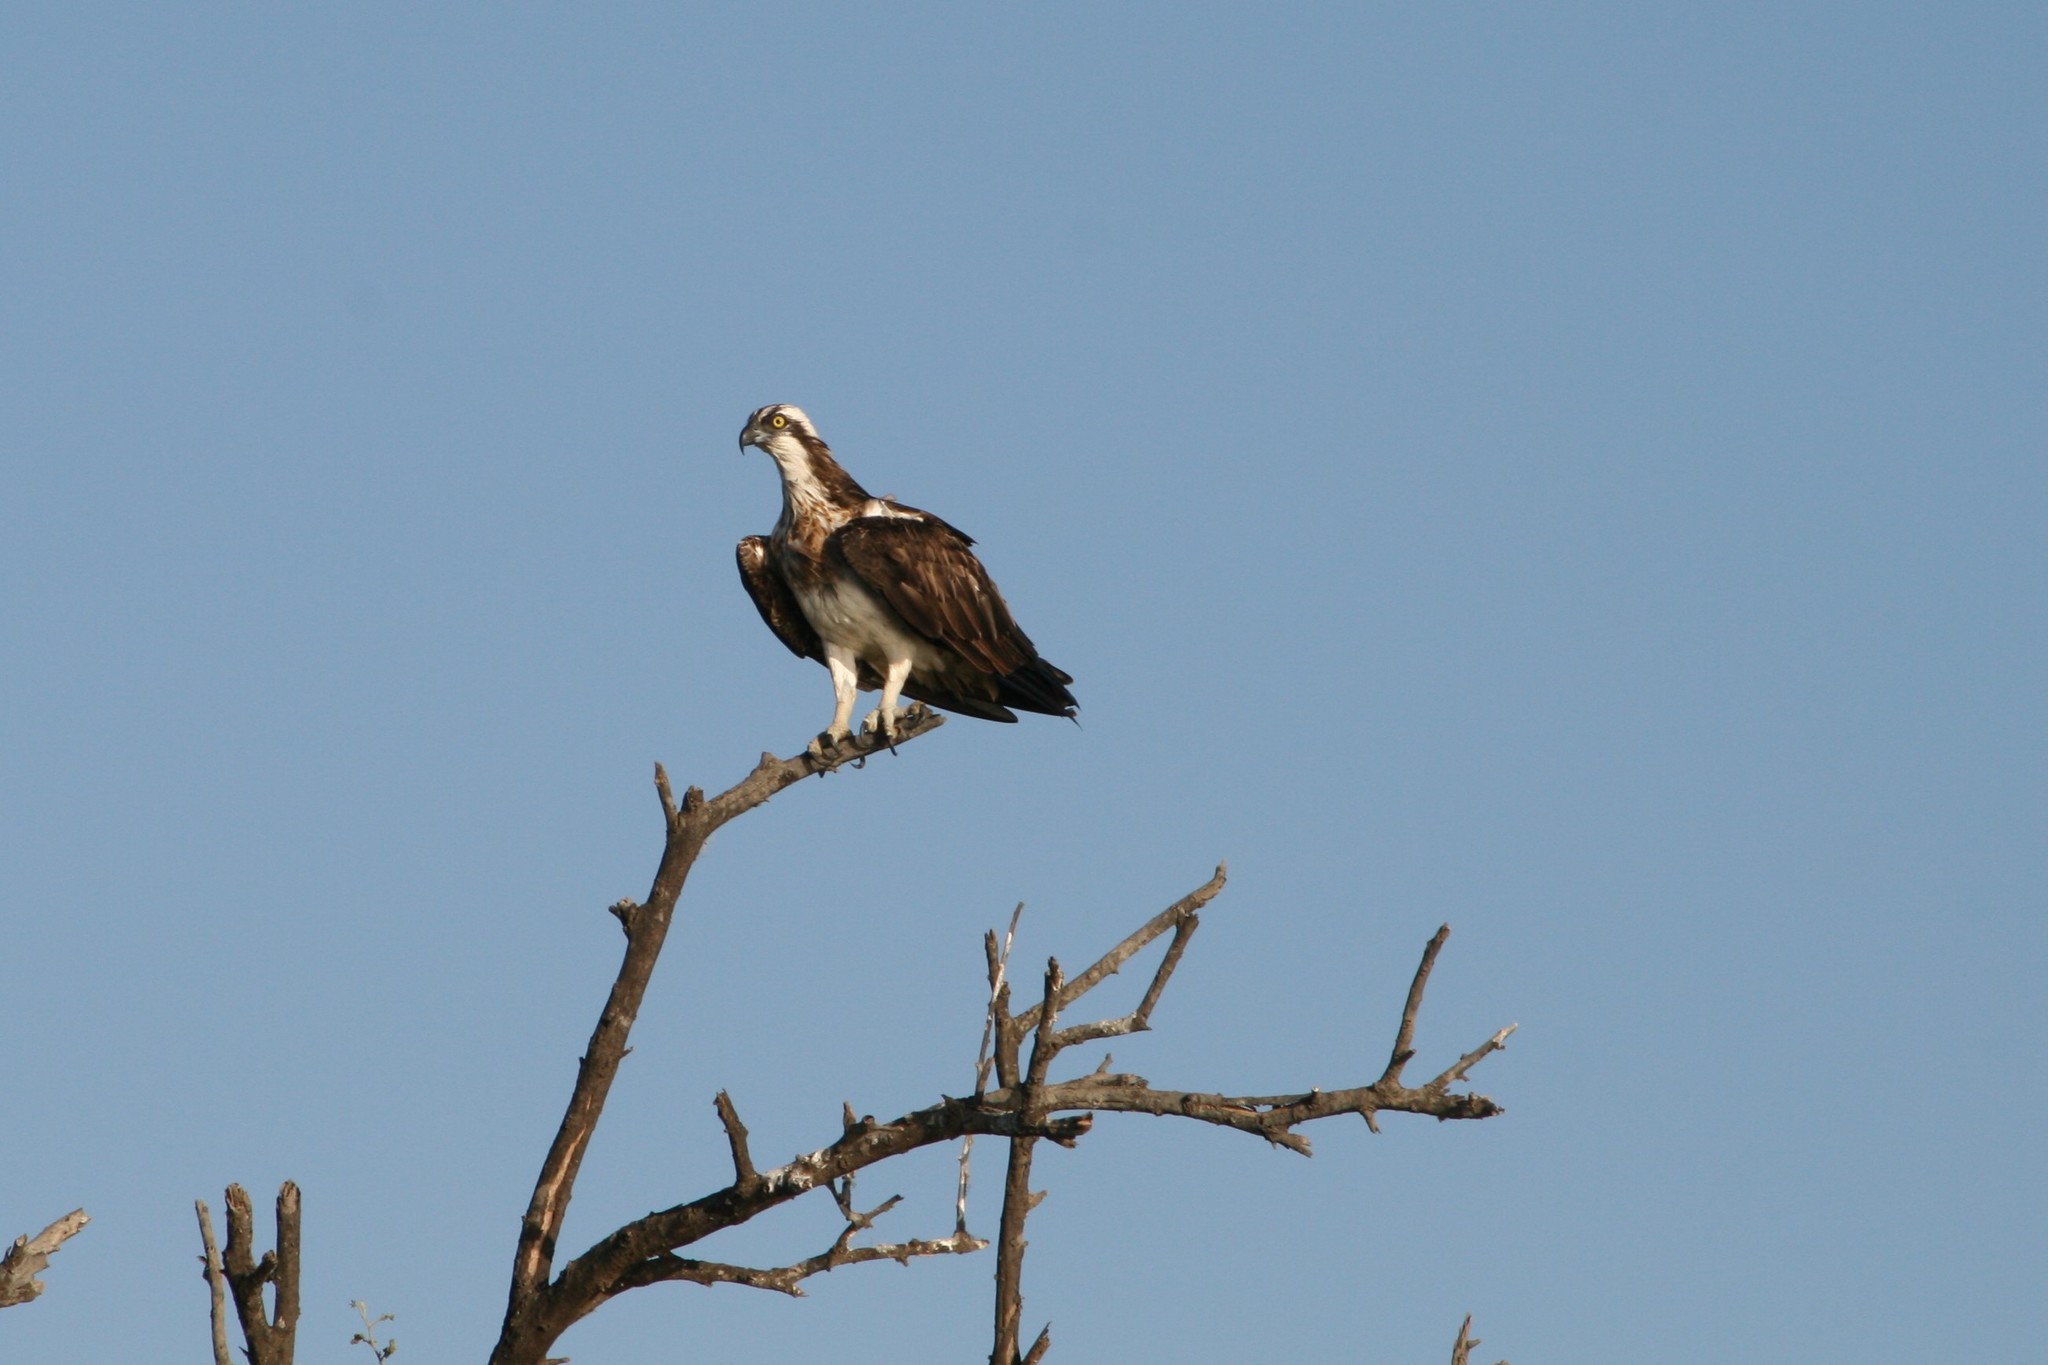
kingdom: Animalia
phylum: Chordata
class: Aves
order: Accipitriformes
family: Pandionidae
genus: Pandion
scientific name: Pandion haliaetus
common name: Osprey
